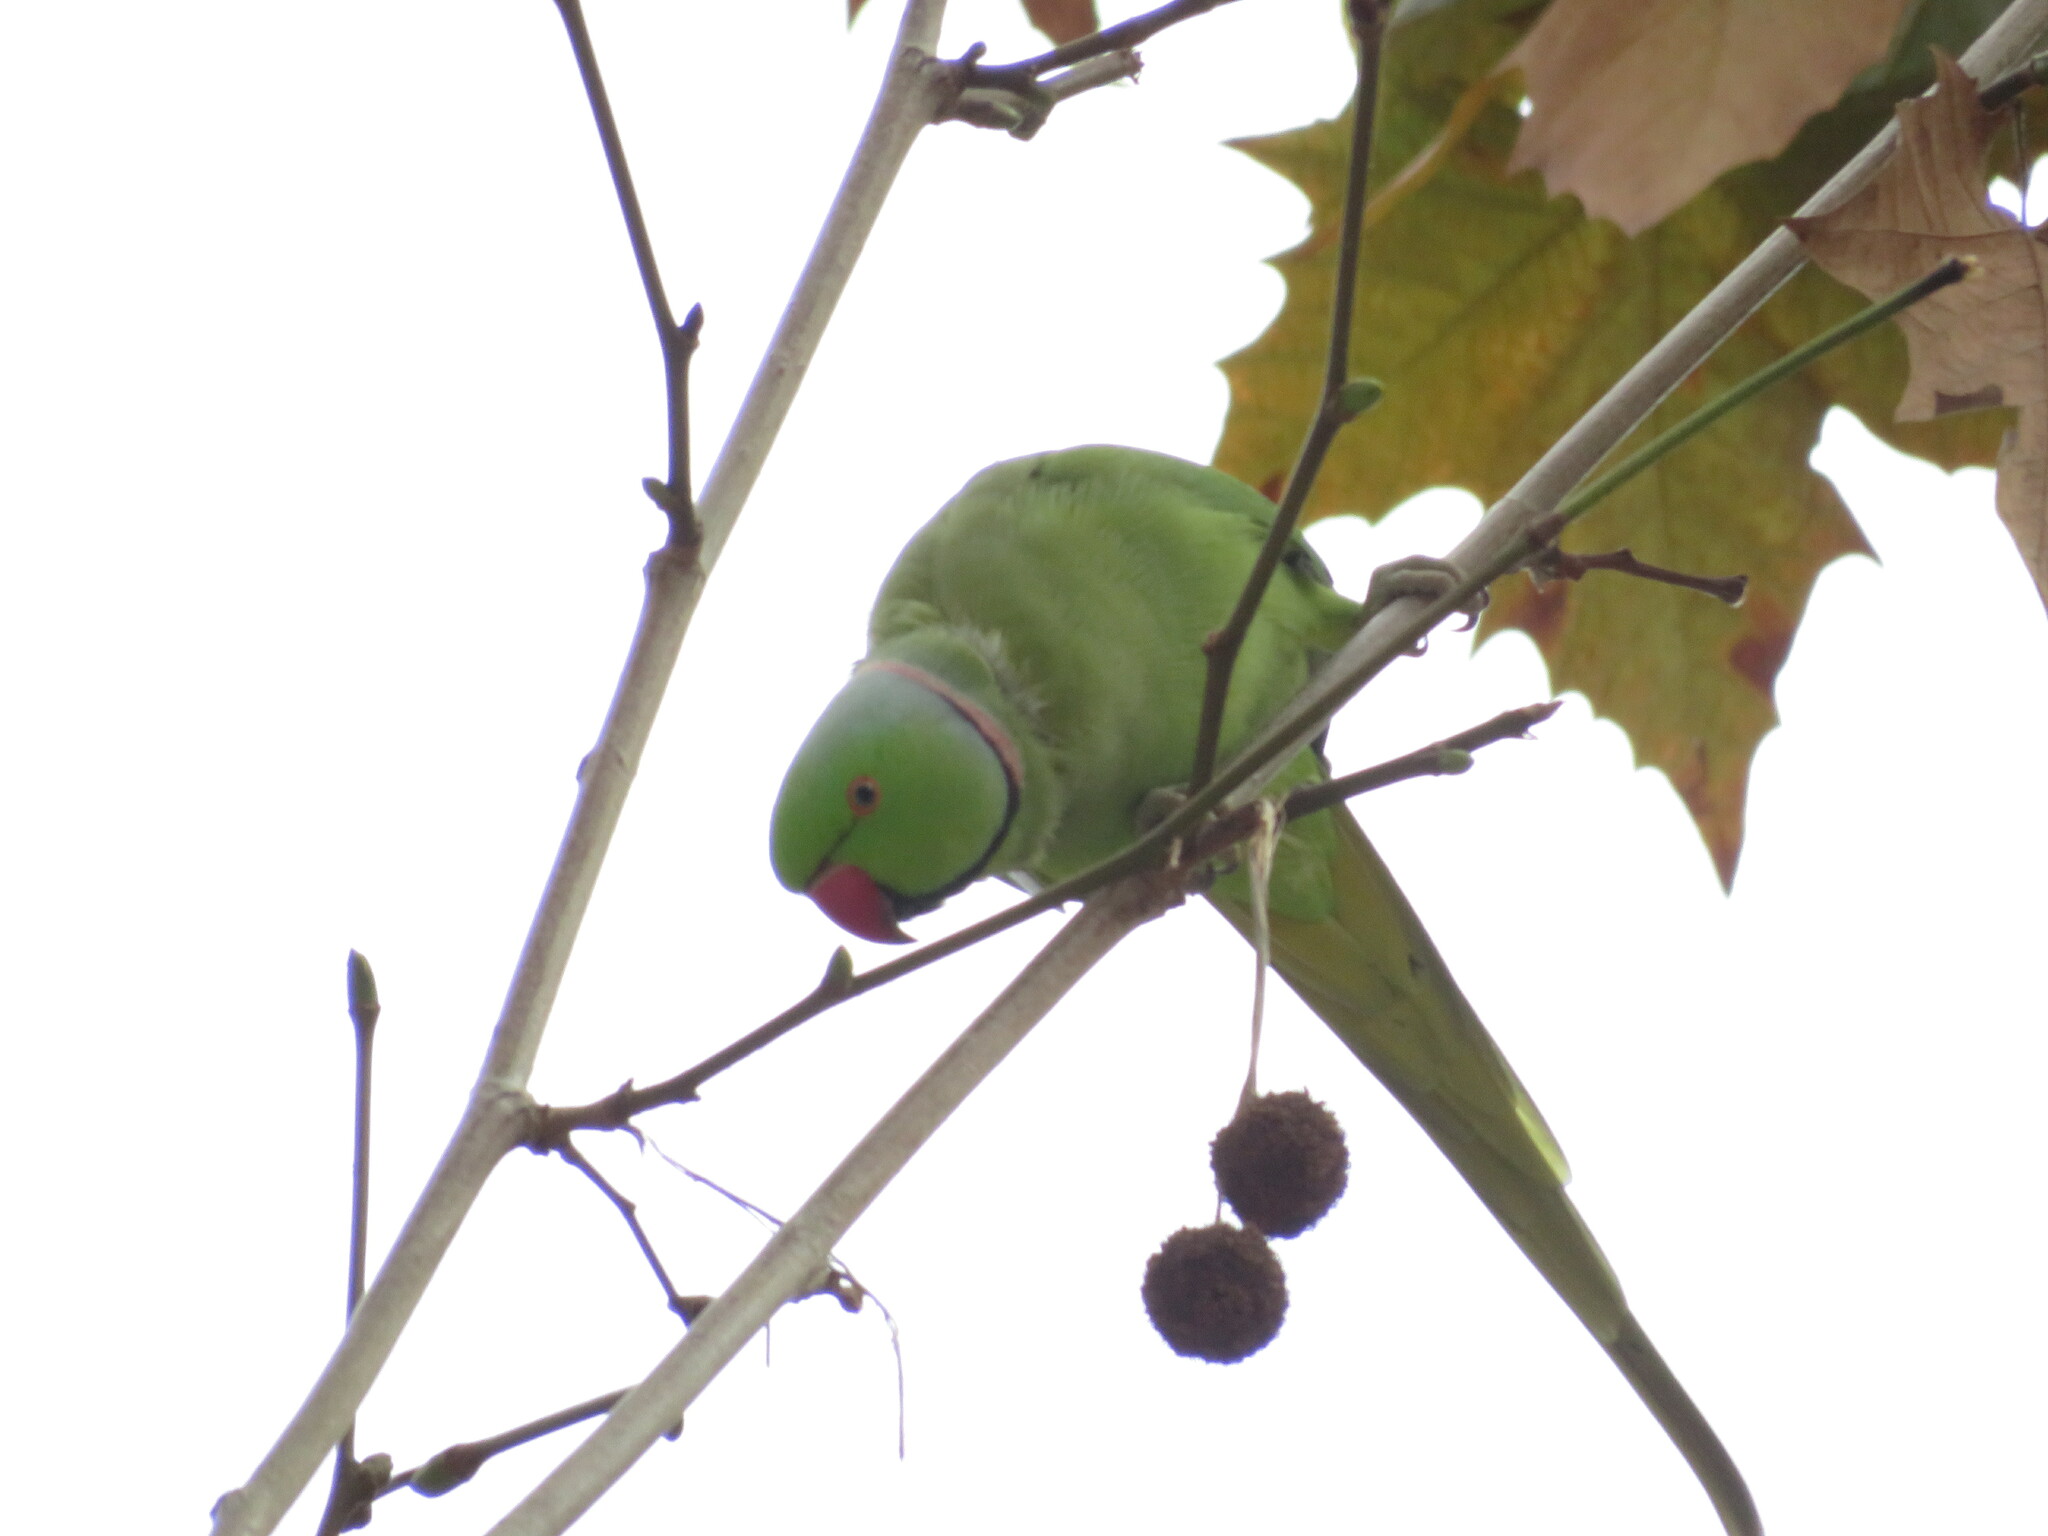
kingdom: Animalia
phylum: Chordata
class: Aves
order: Psittaciformes
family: Psittacidae
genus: Psittacula
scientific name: Psittacula krameri
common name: Rose-ringed parakeet
